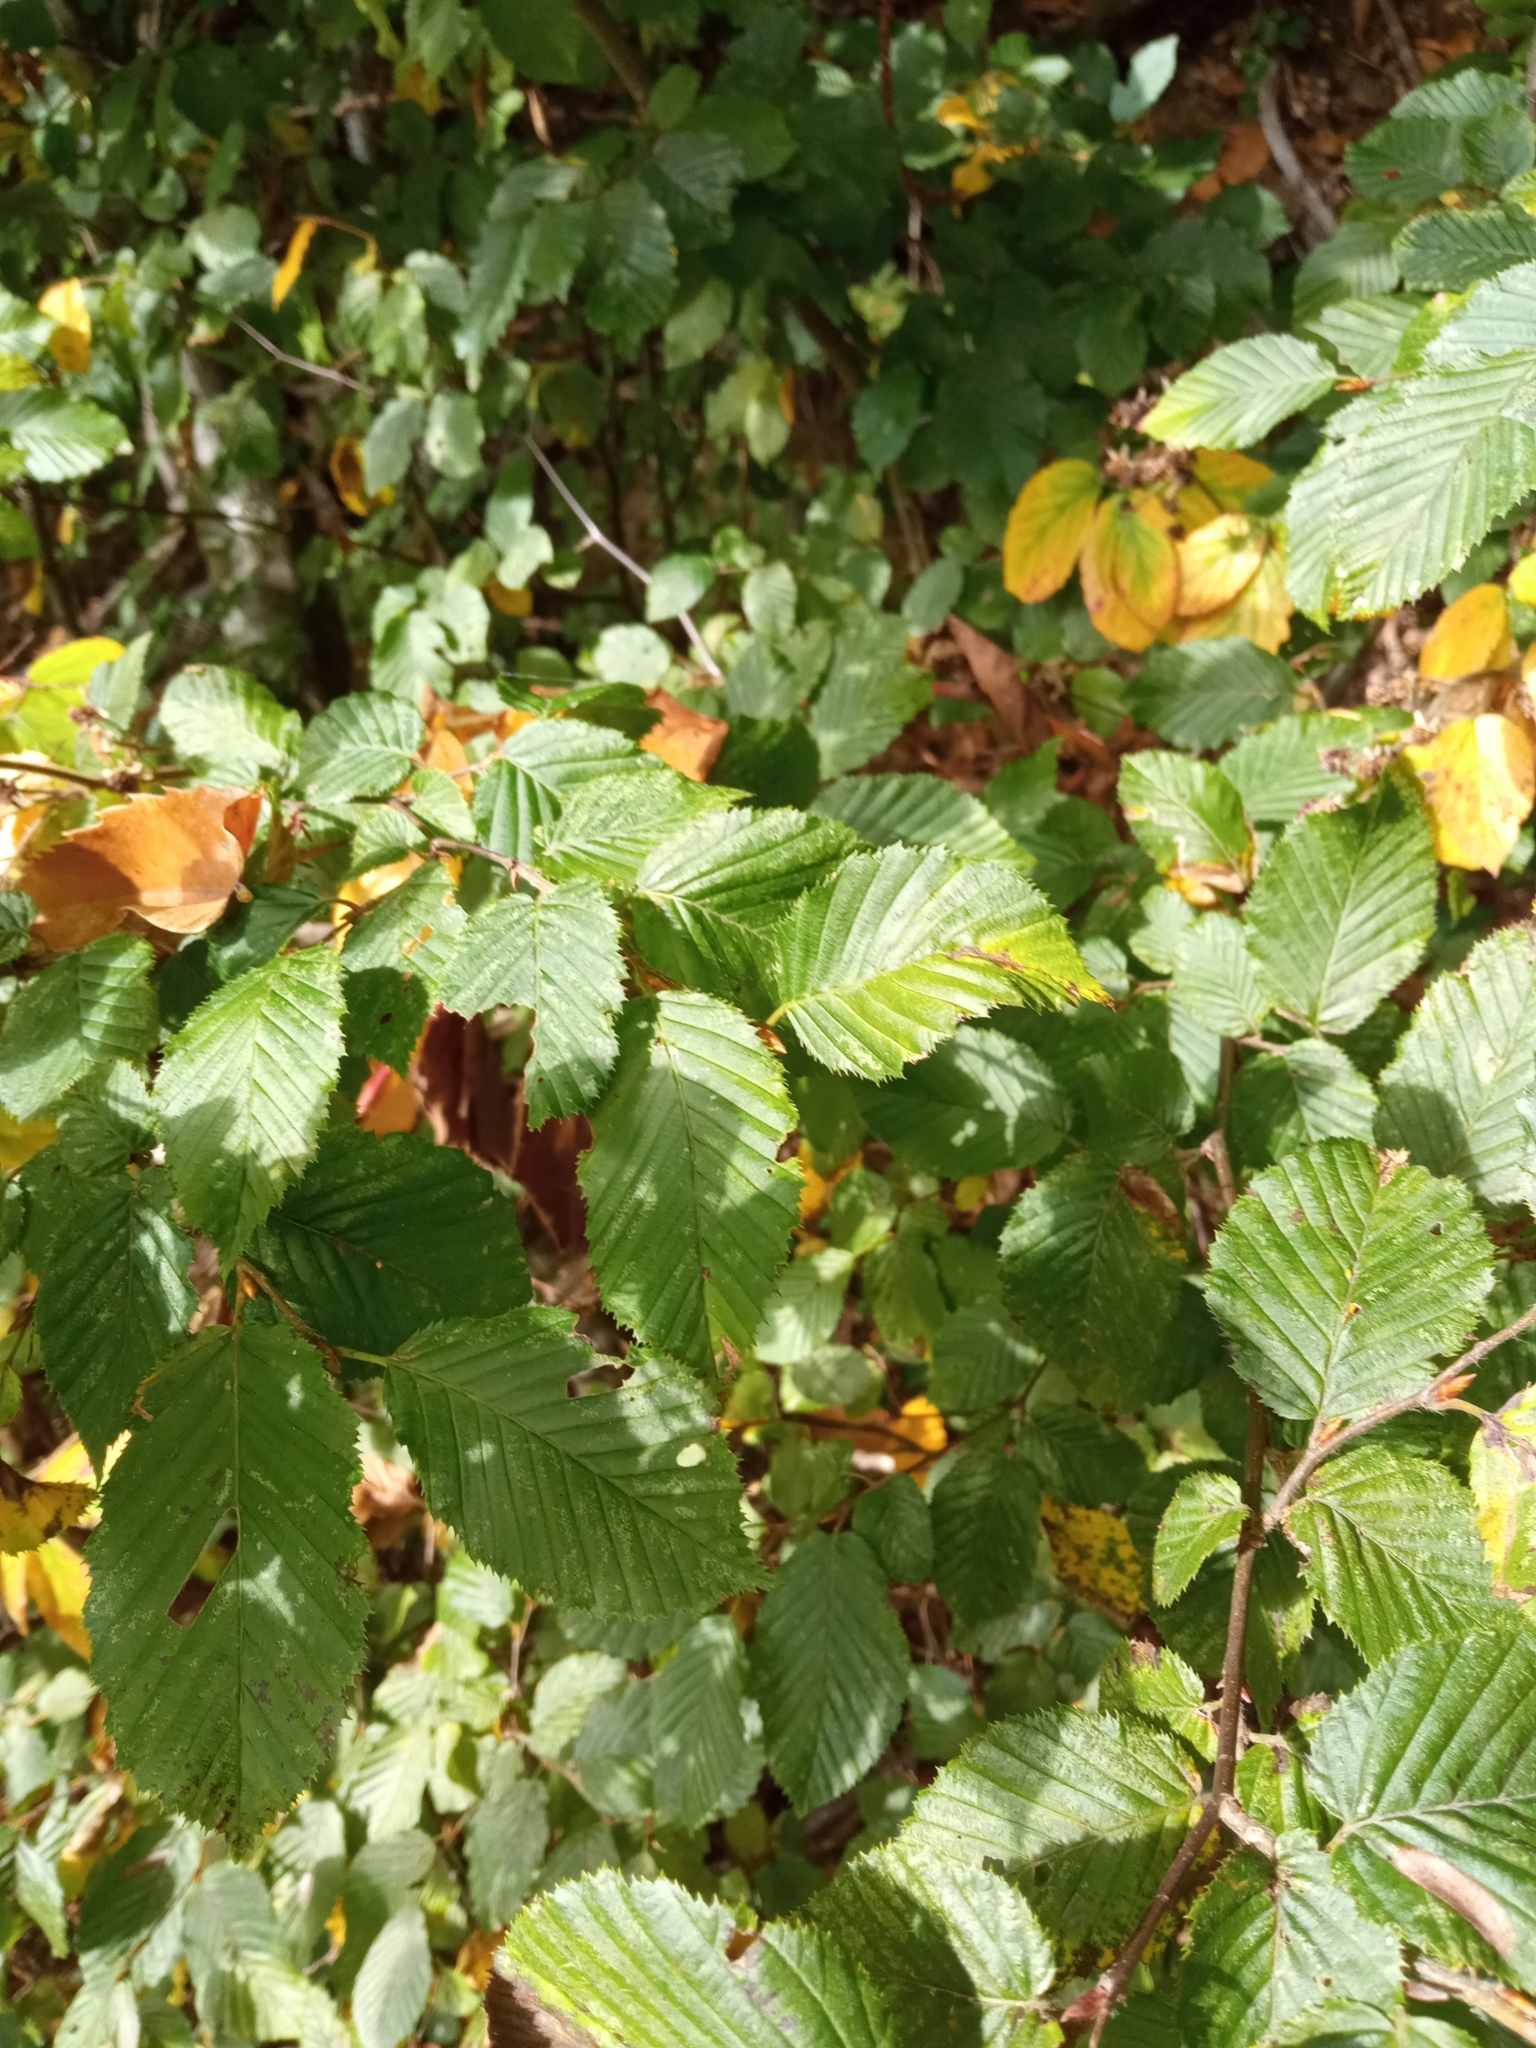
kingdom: Plantae
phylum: Tracheophyta
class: Magnoliopsida
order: Fagales
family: Betulaceae
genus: Carpinus
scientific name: Carpinus betulus
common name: Hornbeam
